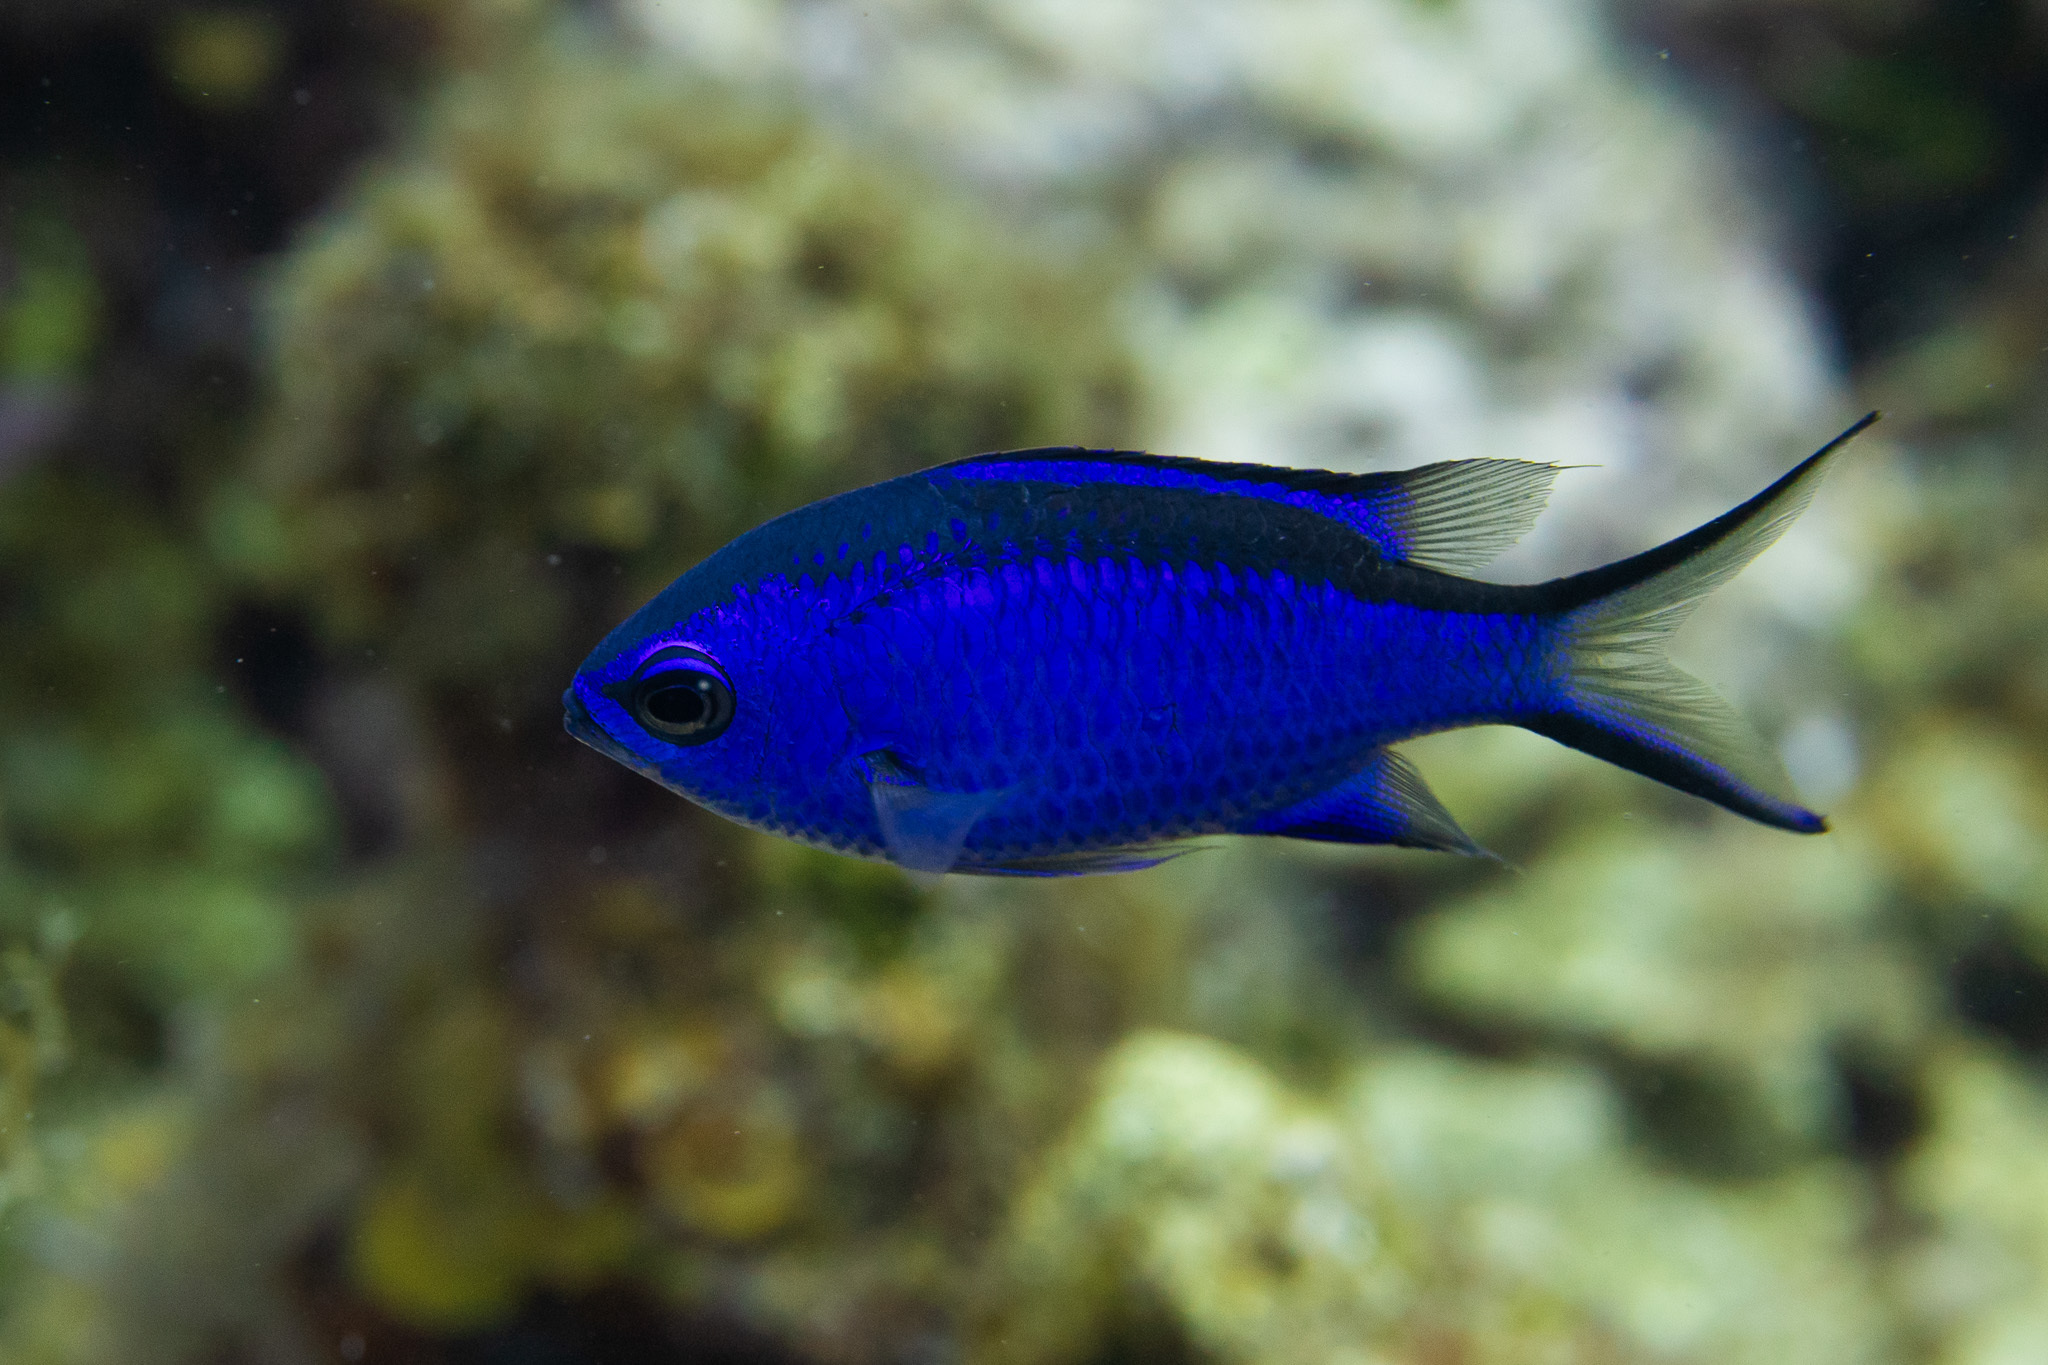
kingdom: Animalia
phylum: Chordata
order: Perciformes
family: Pomacentridae
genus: Chromis
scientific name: Chromis cyanea
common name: Blue chromis
